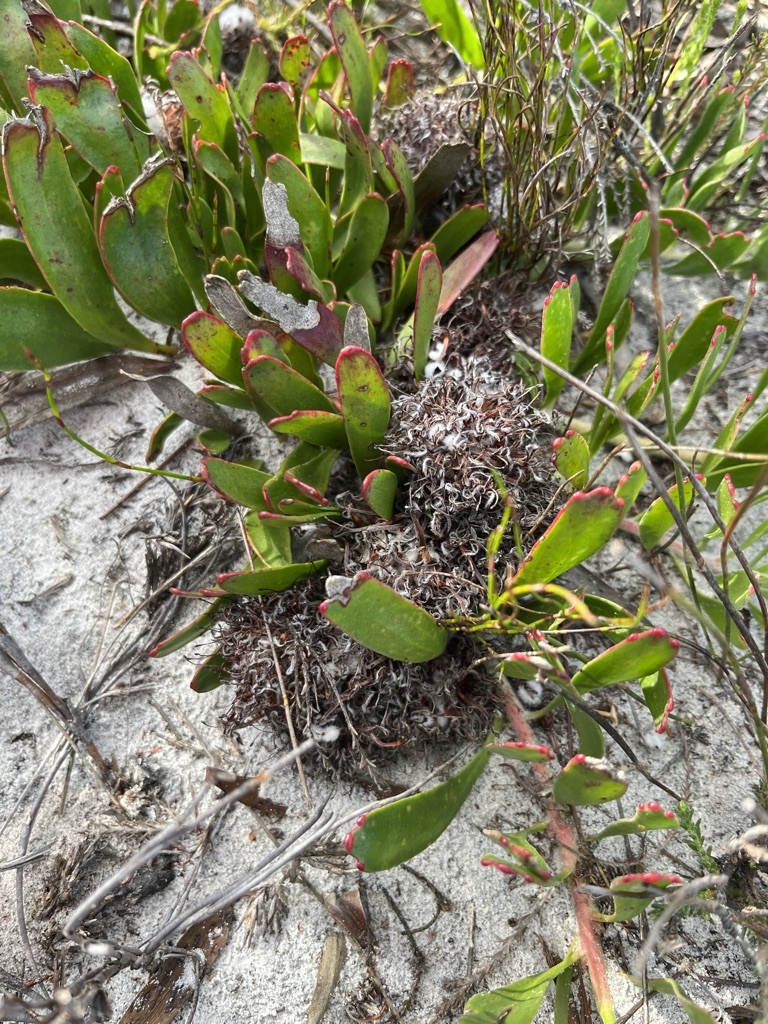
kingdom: Plantae
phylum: Tracheophyta
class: Magnoliopsida
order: Proteales
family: Proteaceae
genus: Leucospermum
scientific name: Leucospermum hypophyllocarpodendron
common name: Snakestem pincushion
